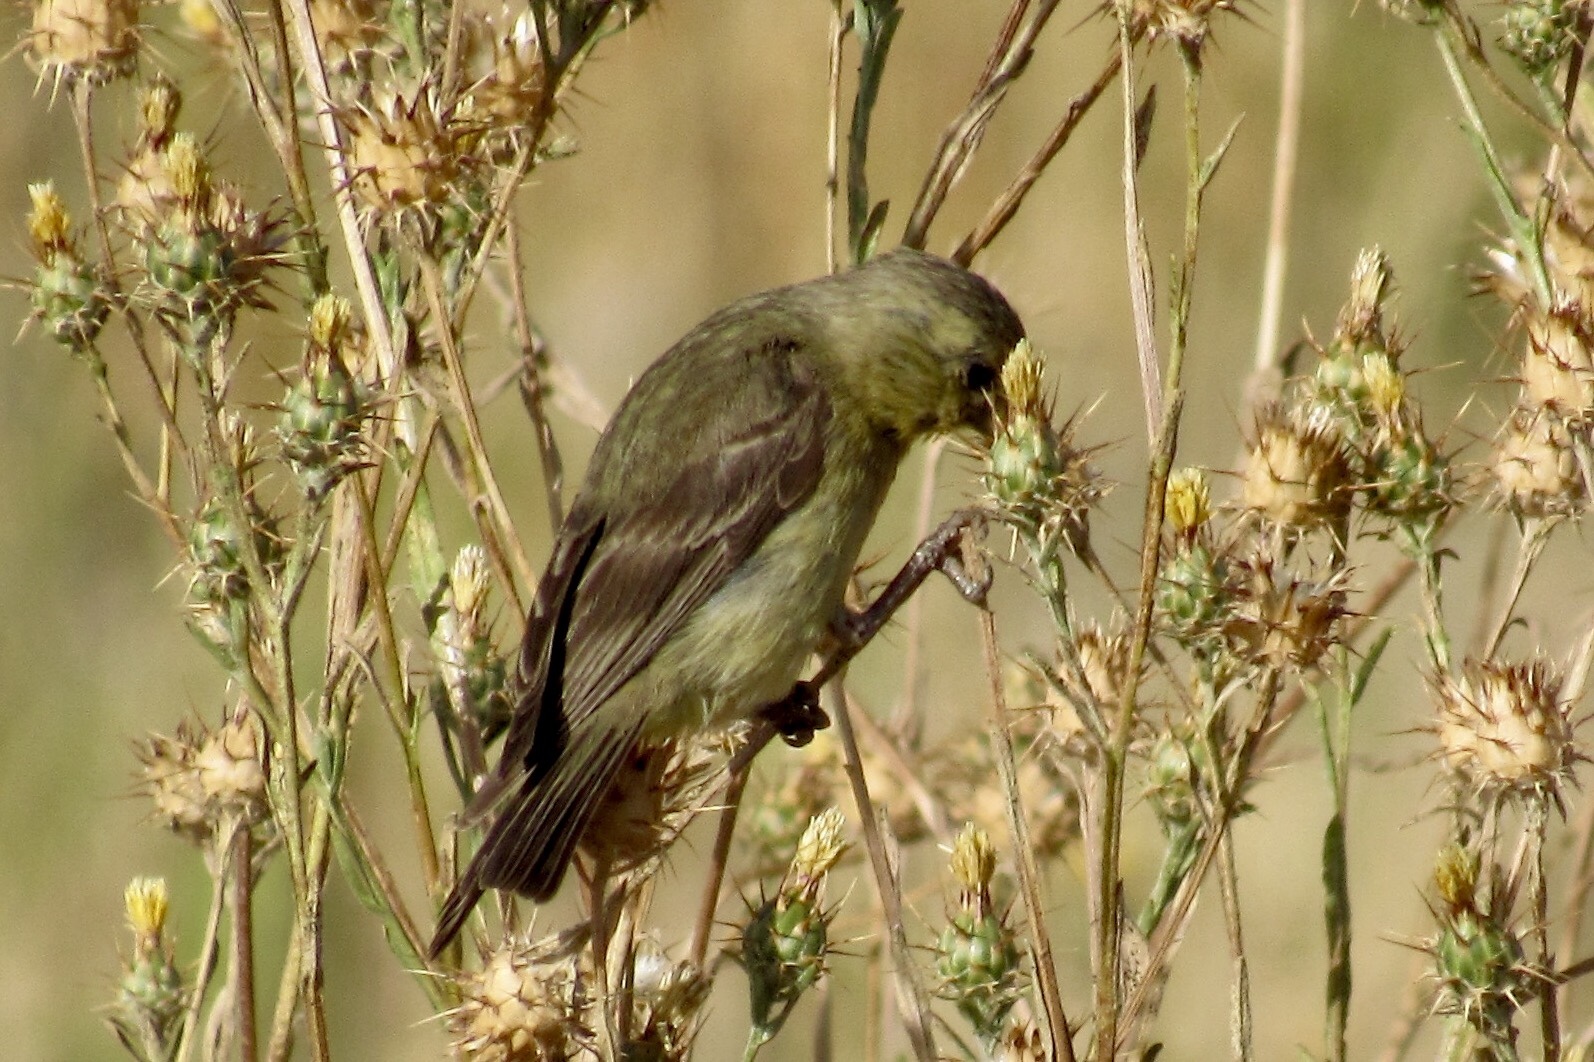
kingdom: Animalia
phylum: Chordata
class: Aves
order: Passeriformes
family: Fringillidae
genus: Spinus
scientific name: Spinus psaltria
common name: Lesser goldfinch
